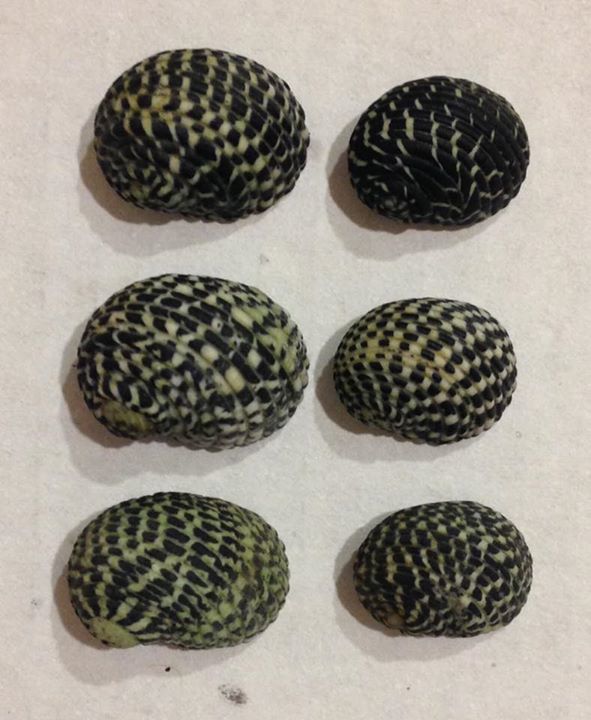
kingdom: Animalia
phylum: Mollusca
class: Gastropoda
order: Cycloneritida
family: Neritidae
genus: Nerita
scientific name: Nerita tessellata
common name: Checkered nerite
